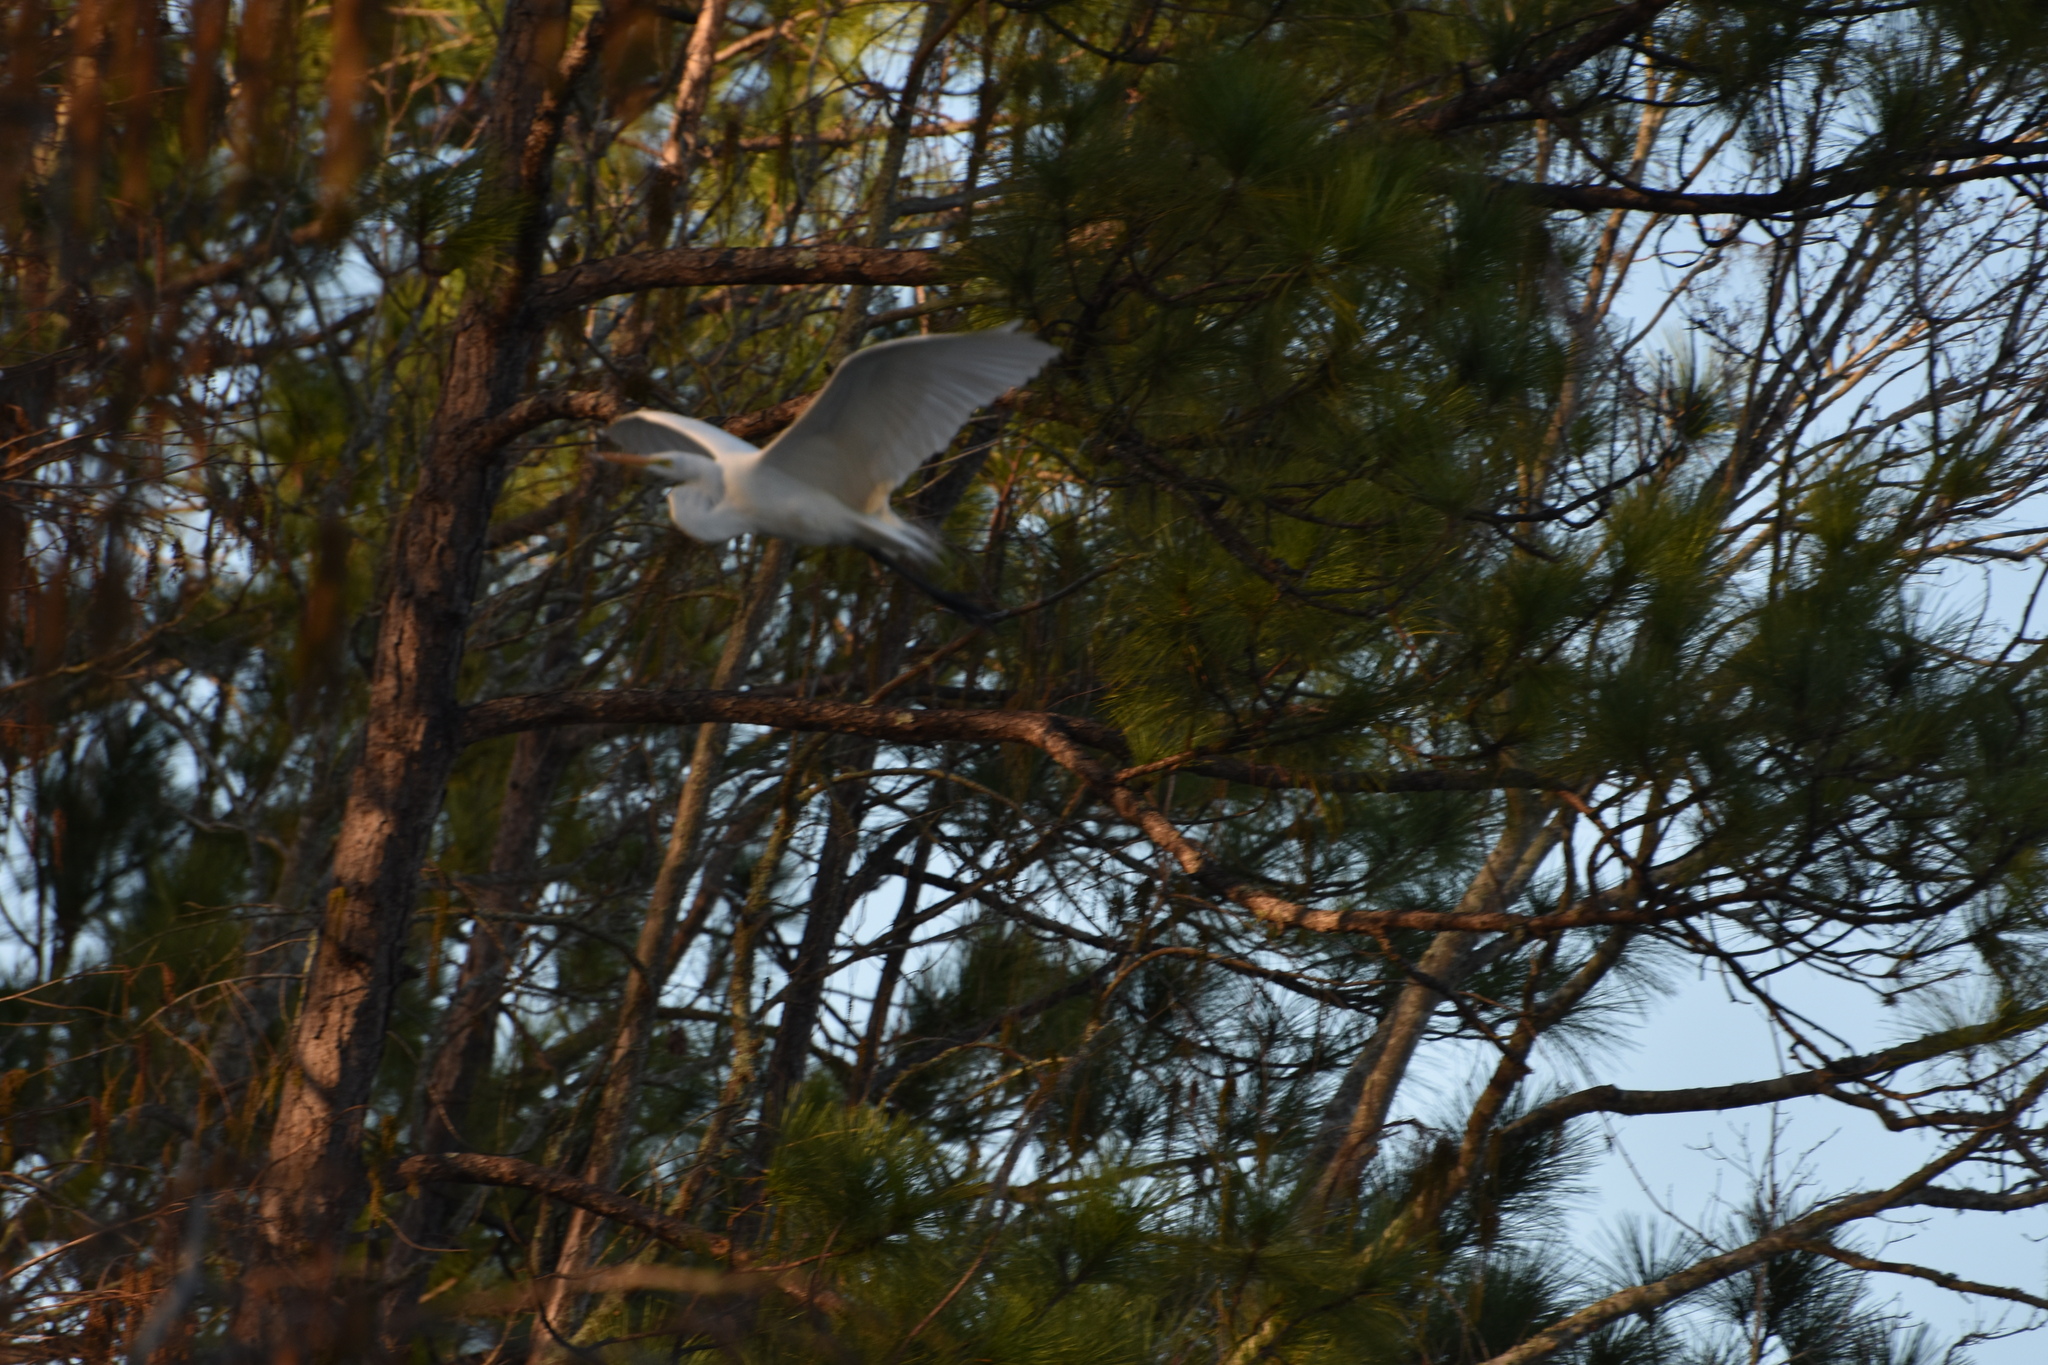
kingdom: Animalia
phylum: Chordata
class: Aves
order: Pelecaniformes
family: Ardeidae
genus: Ardea
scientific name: Ardea alba
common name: Great egret
